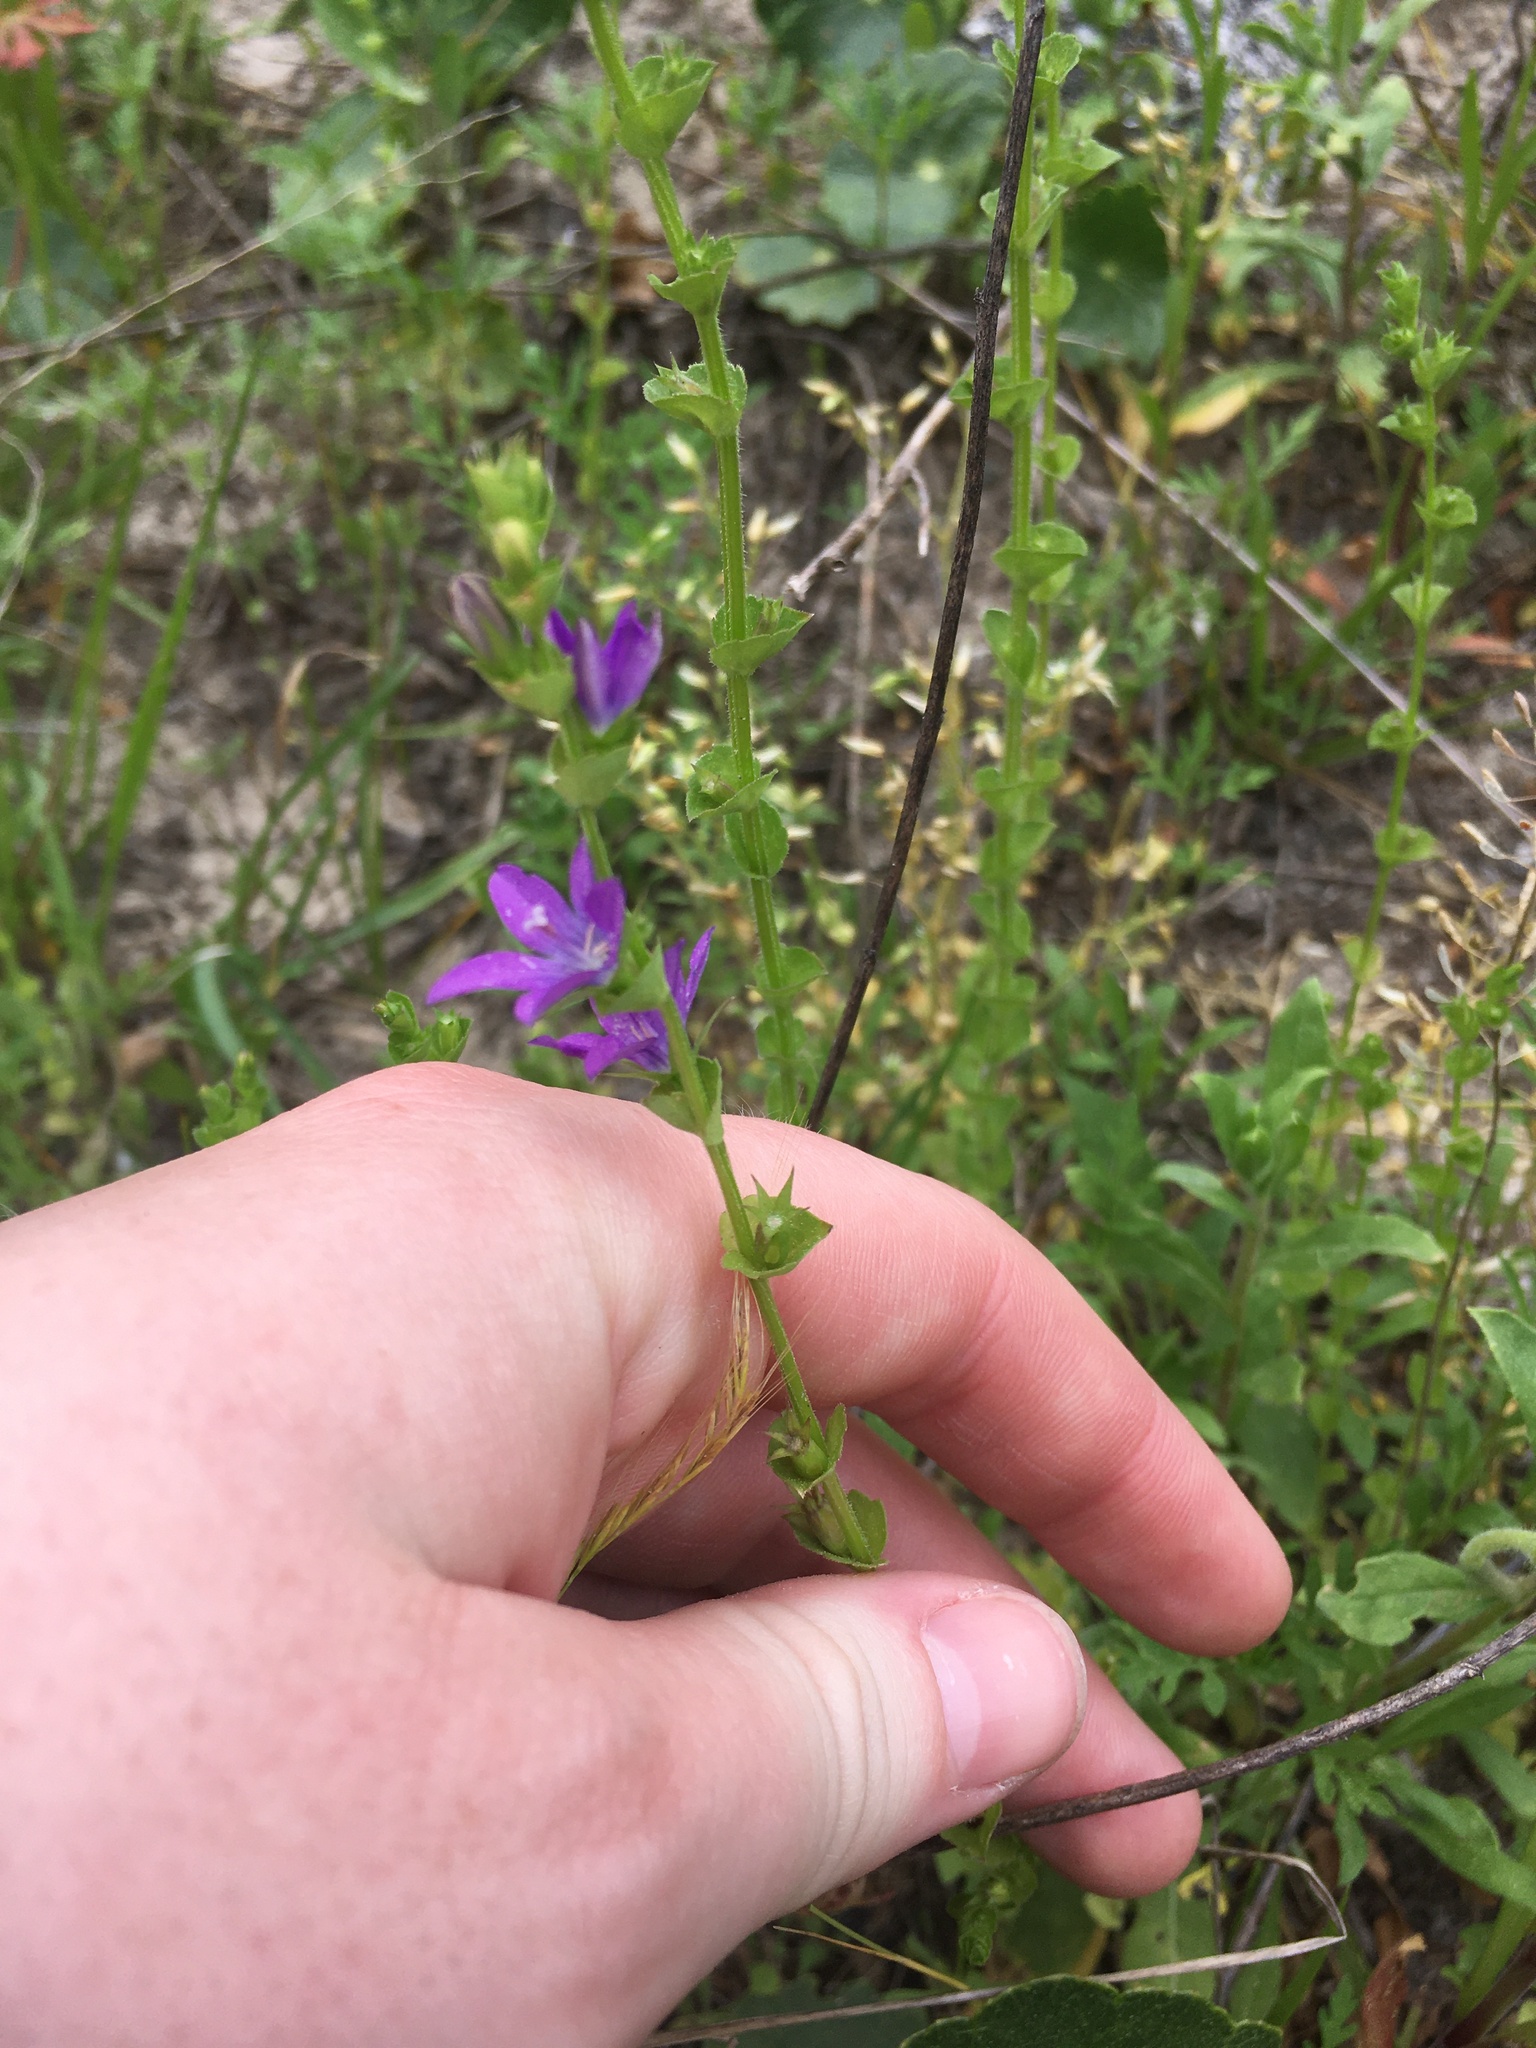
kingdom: Plantae
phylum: Tracheophyta
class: Magnoliopsida
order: Asterales
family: Campanulaceae
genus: Triodanis
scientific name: Triodanis perfoliata
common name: Clasping venus' looking-glass
